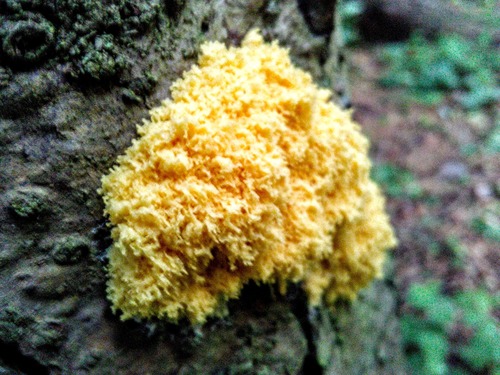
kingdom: Protozoa
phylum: Mycetozoa
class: Myxomycetes
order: Physarales
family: Physaraceae
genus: Fuligo
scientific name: Fuligo septica
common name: Dog vomit slime mold
